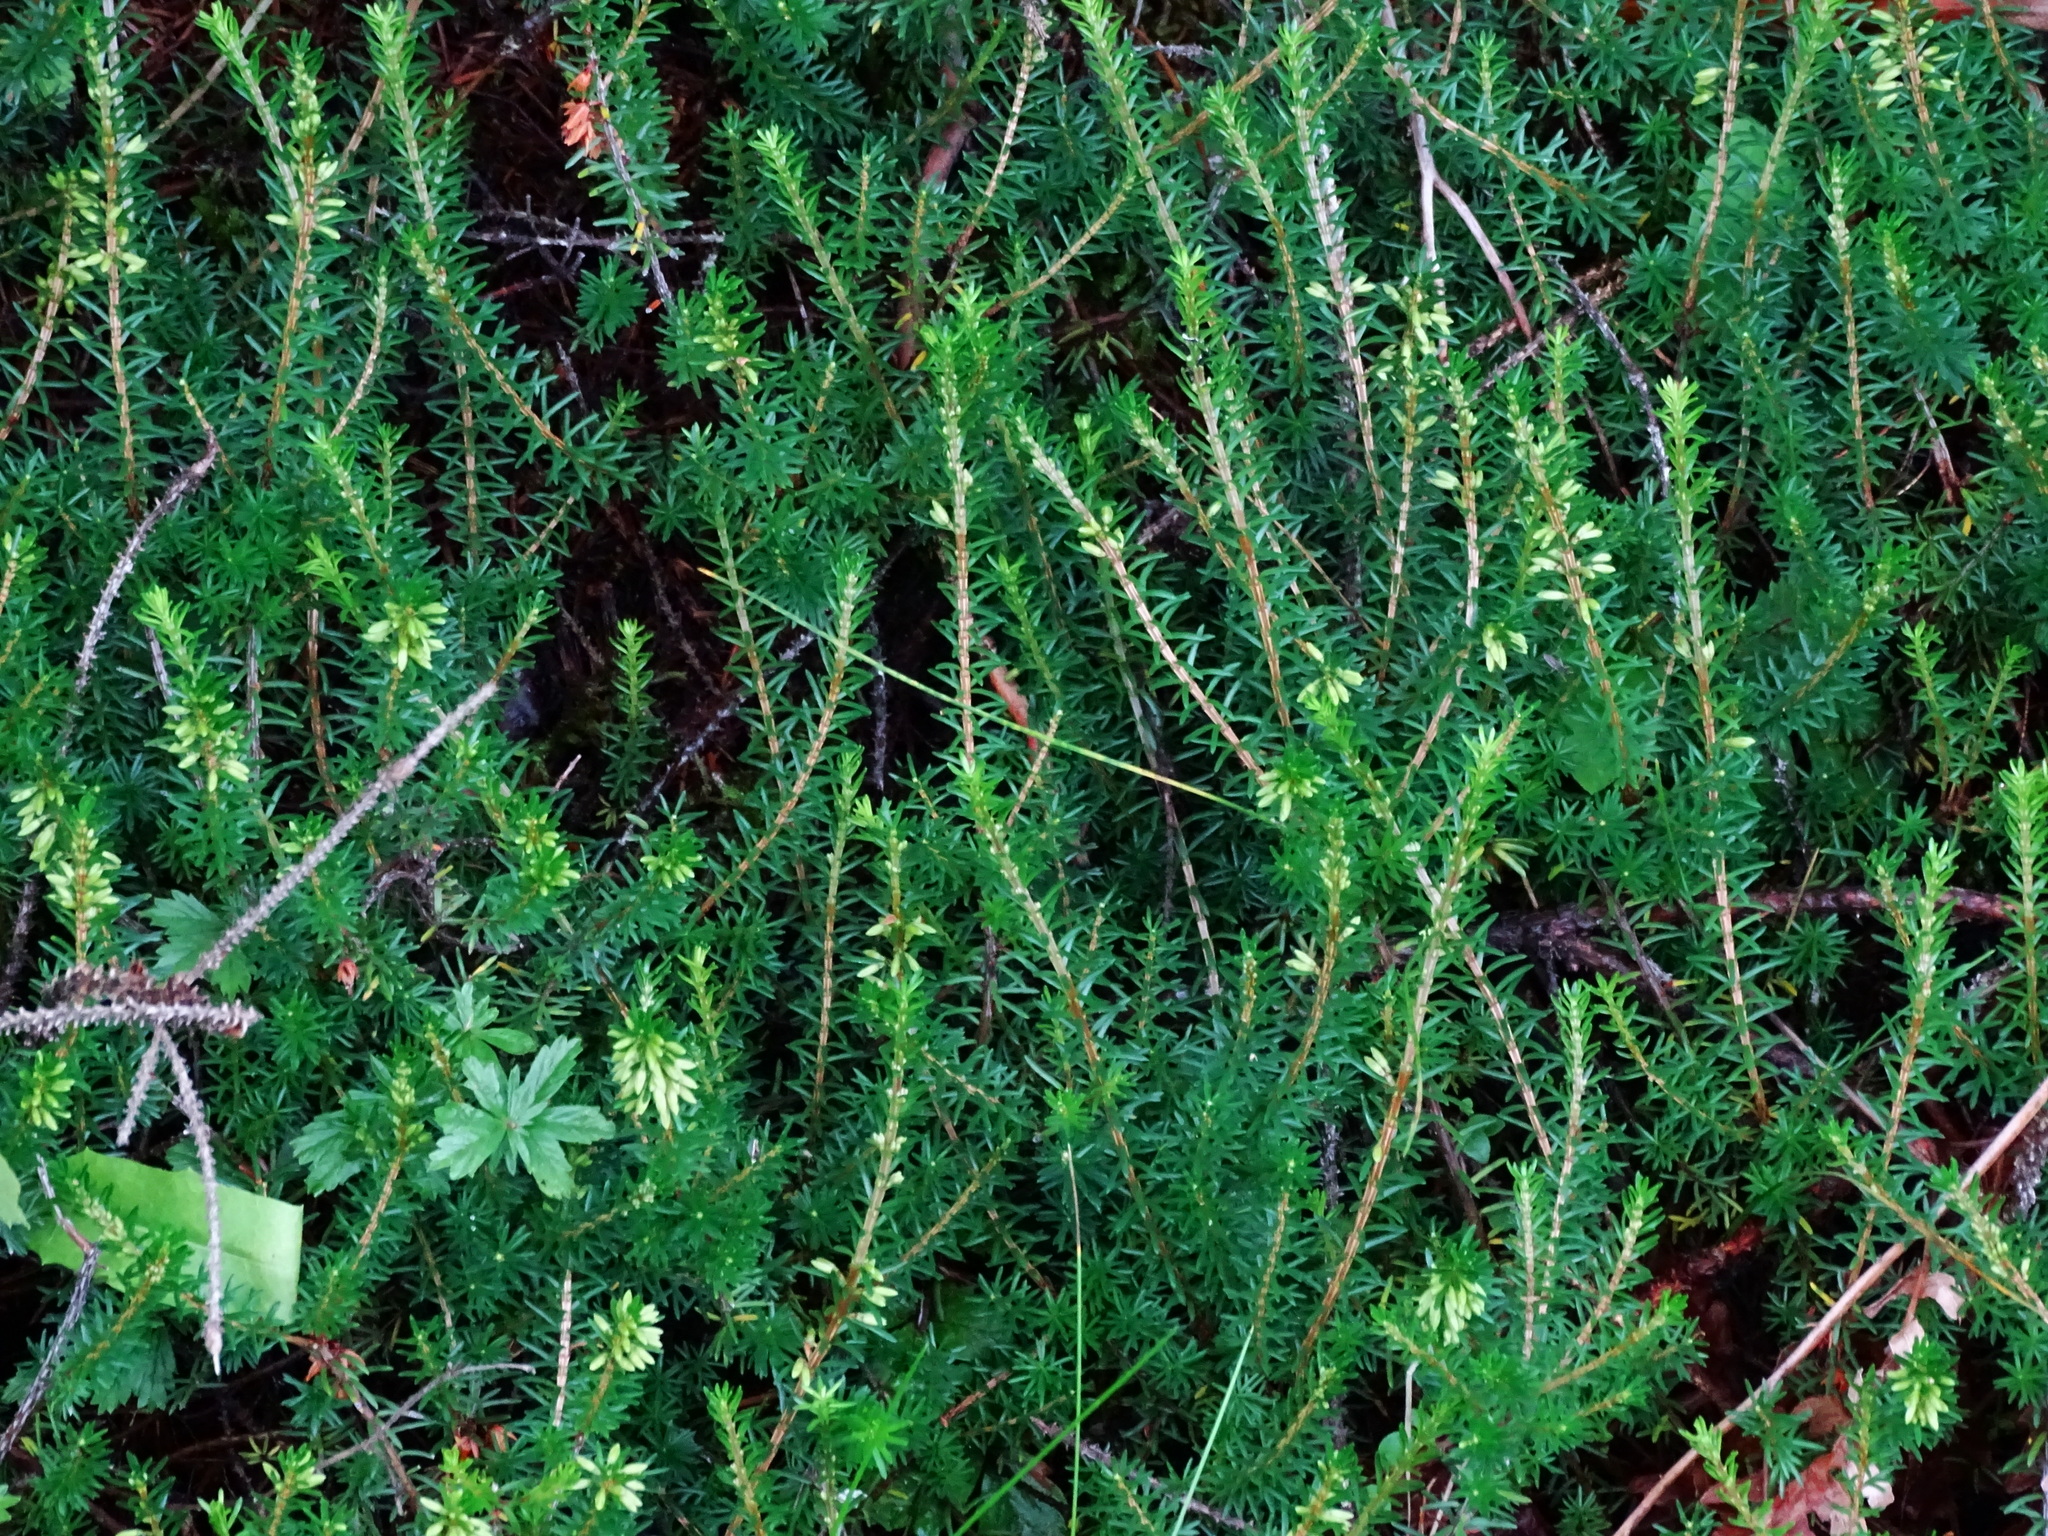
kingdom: Plantae
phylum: Tracheophyta
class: Magnoliopsida
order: Ericales
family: Ericaceae
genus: Erica
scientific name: Erica carnea
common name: Winter heath
